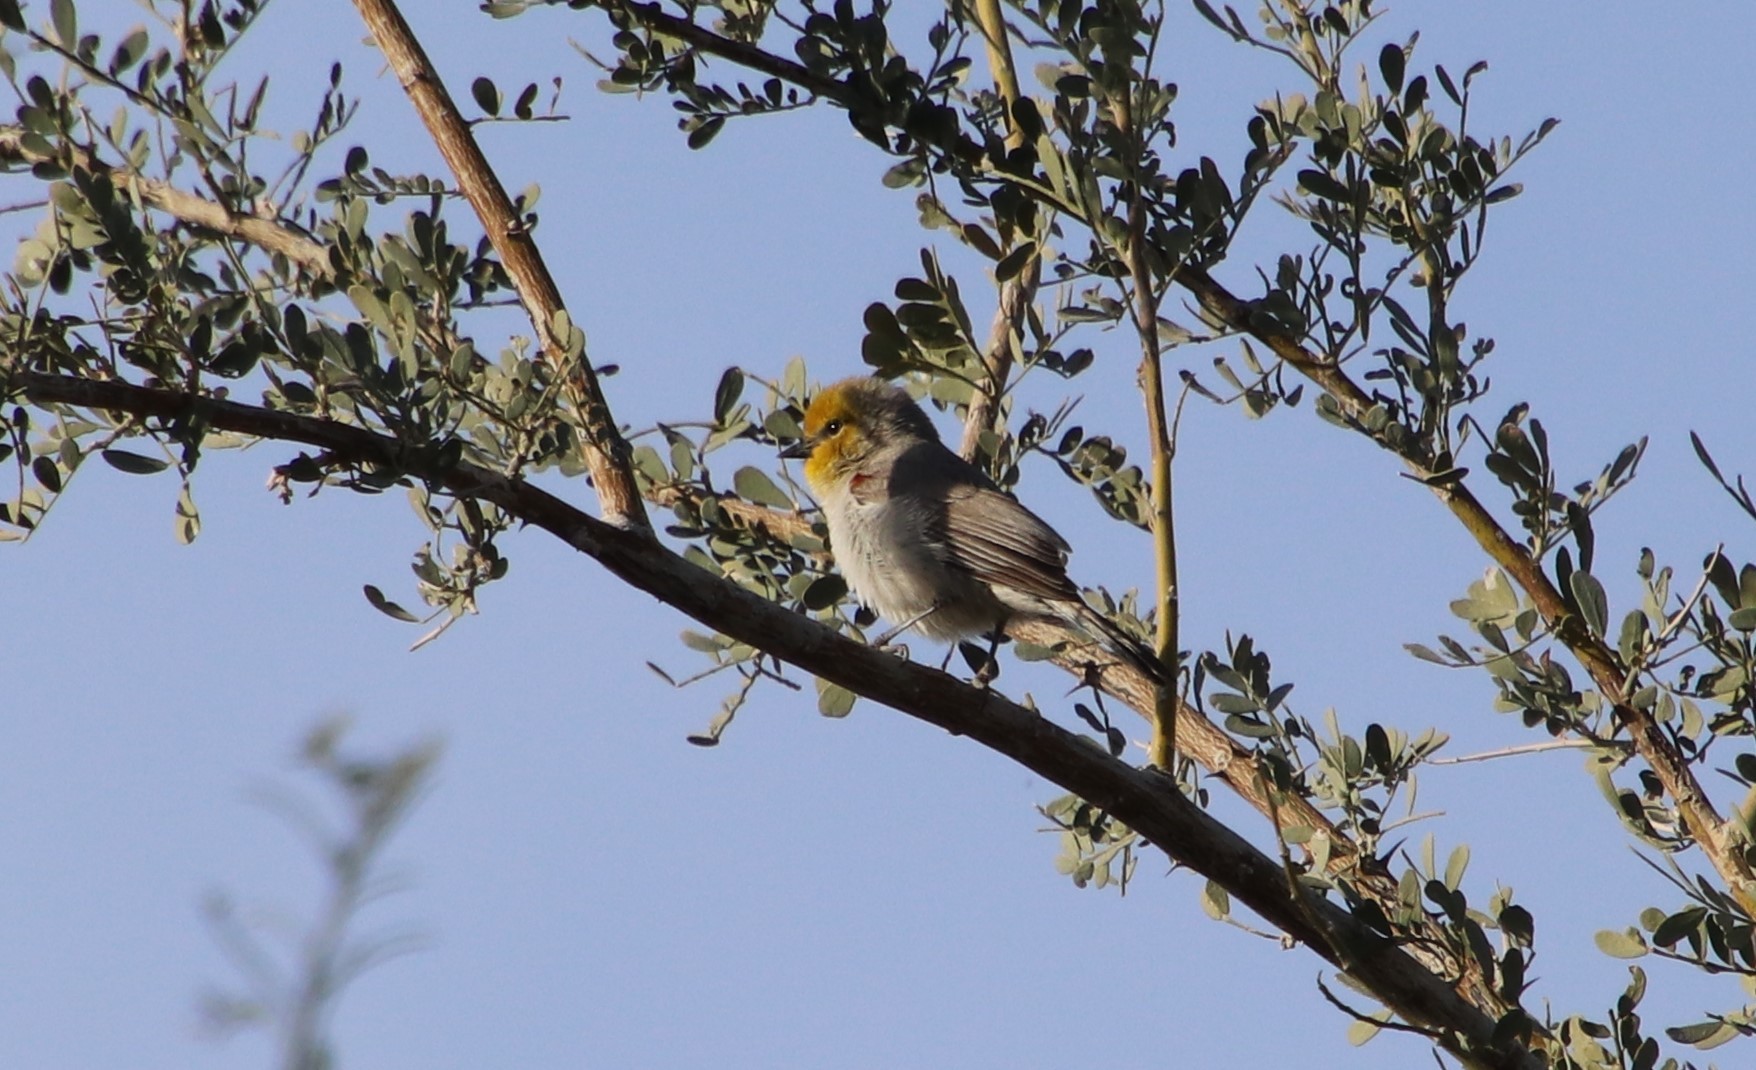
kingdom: Animalia
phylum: Chordata
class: Aves
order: Passeriformes
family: Remizidae
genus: Auriparus
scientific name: Auriparus flaviceps
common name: Verdin
